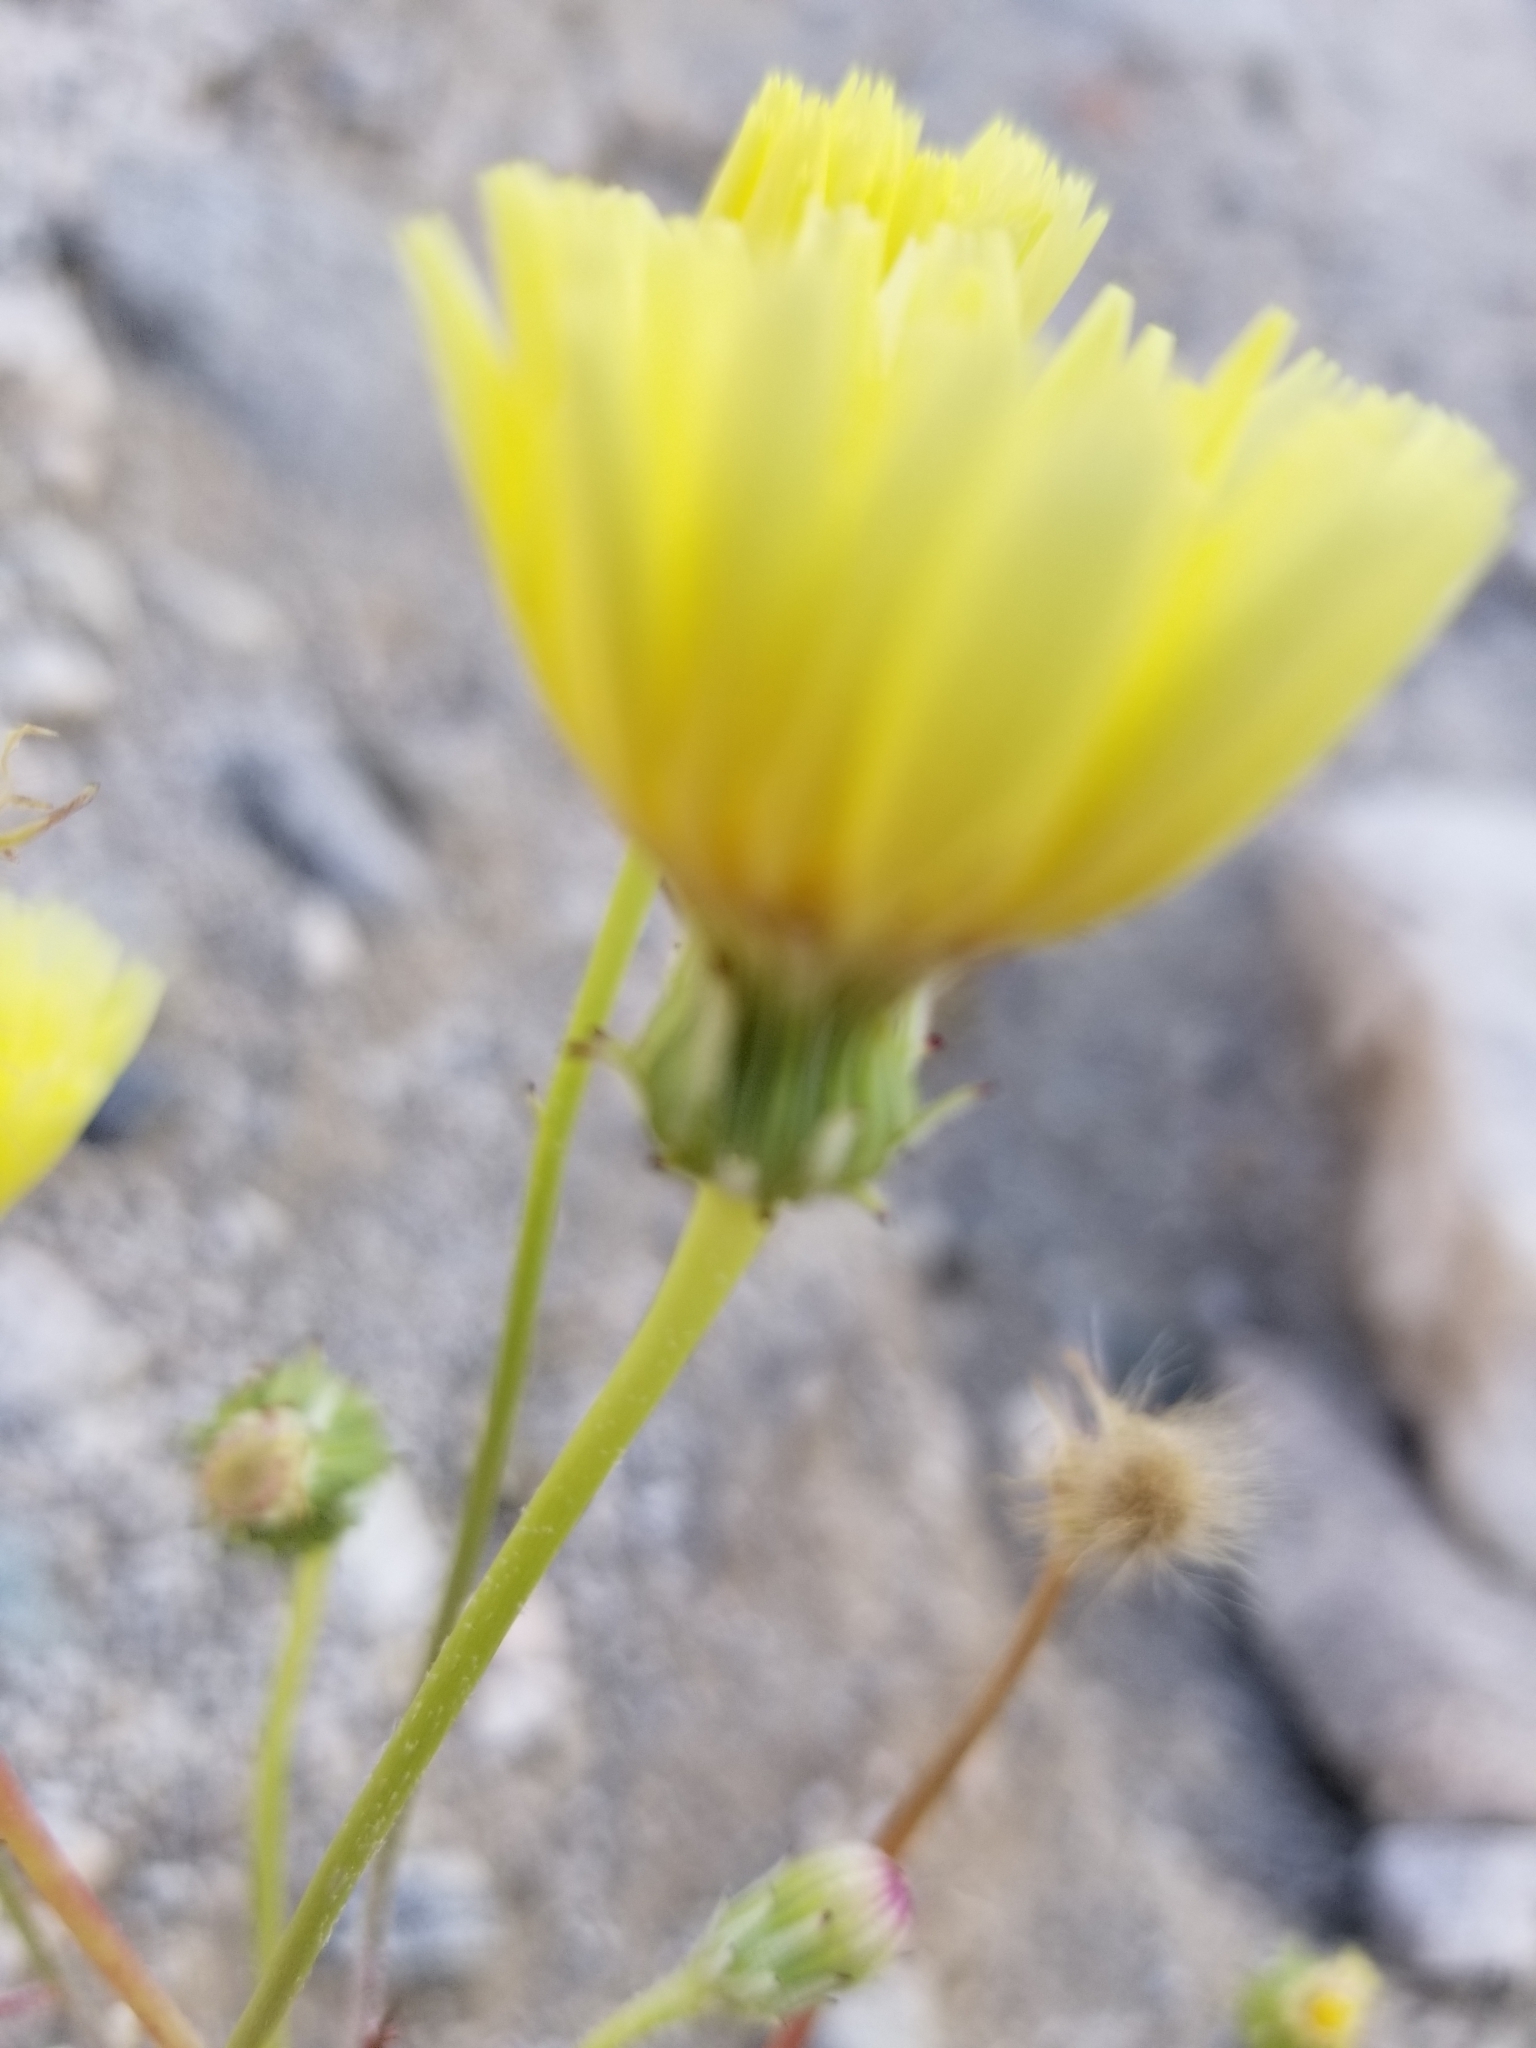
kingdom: Plantae
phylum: Tracheophyta
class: Magnoliopsida
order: Asterales
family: Asteraceae
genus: Malacothrix
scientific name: Malacothrix glabrata
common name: Smooth desert-dandelion
